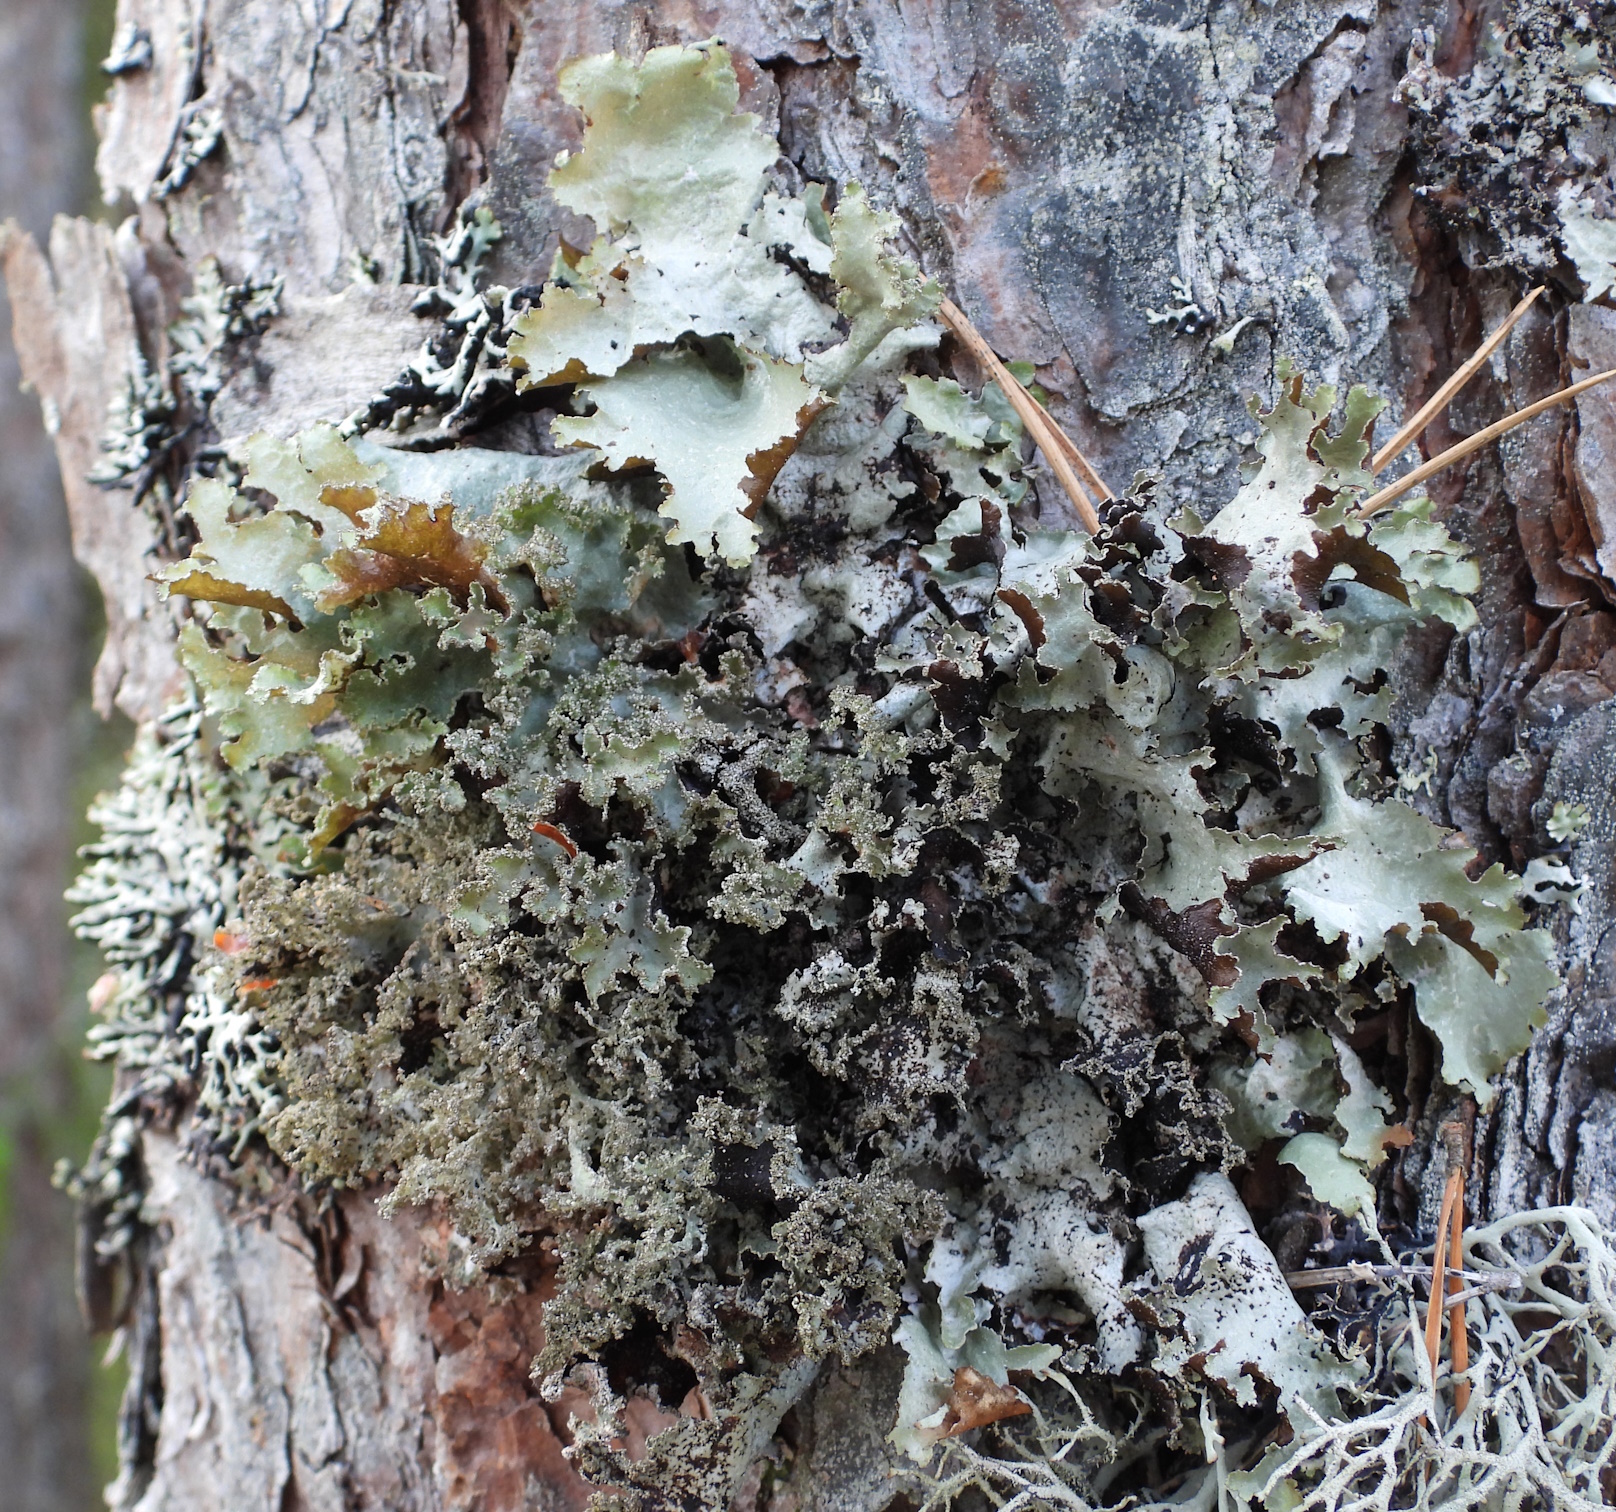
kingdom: Fungi
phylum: Ascomycota
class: Lecanoromycetes
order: Lecanorales
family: Parmeliaceae
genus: Platismatia
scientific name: Platismatia glauca
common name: Varied rag lichen
